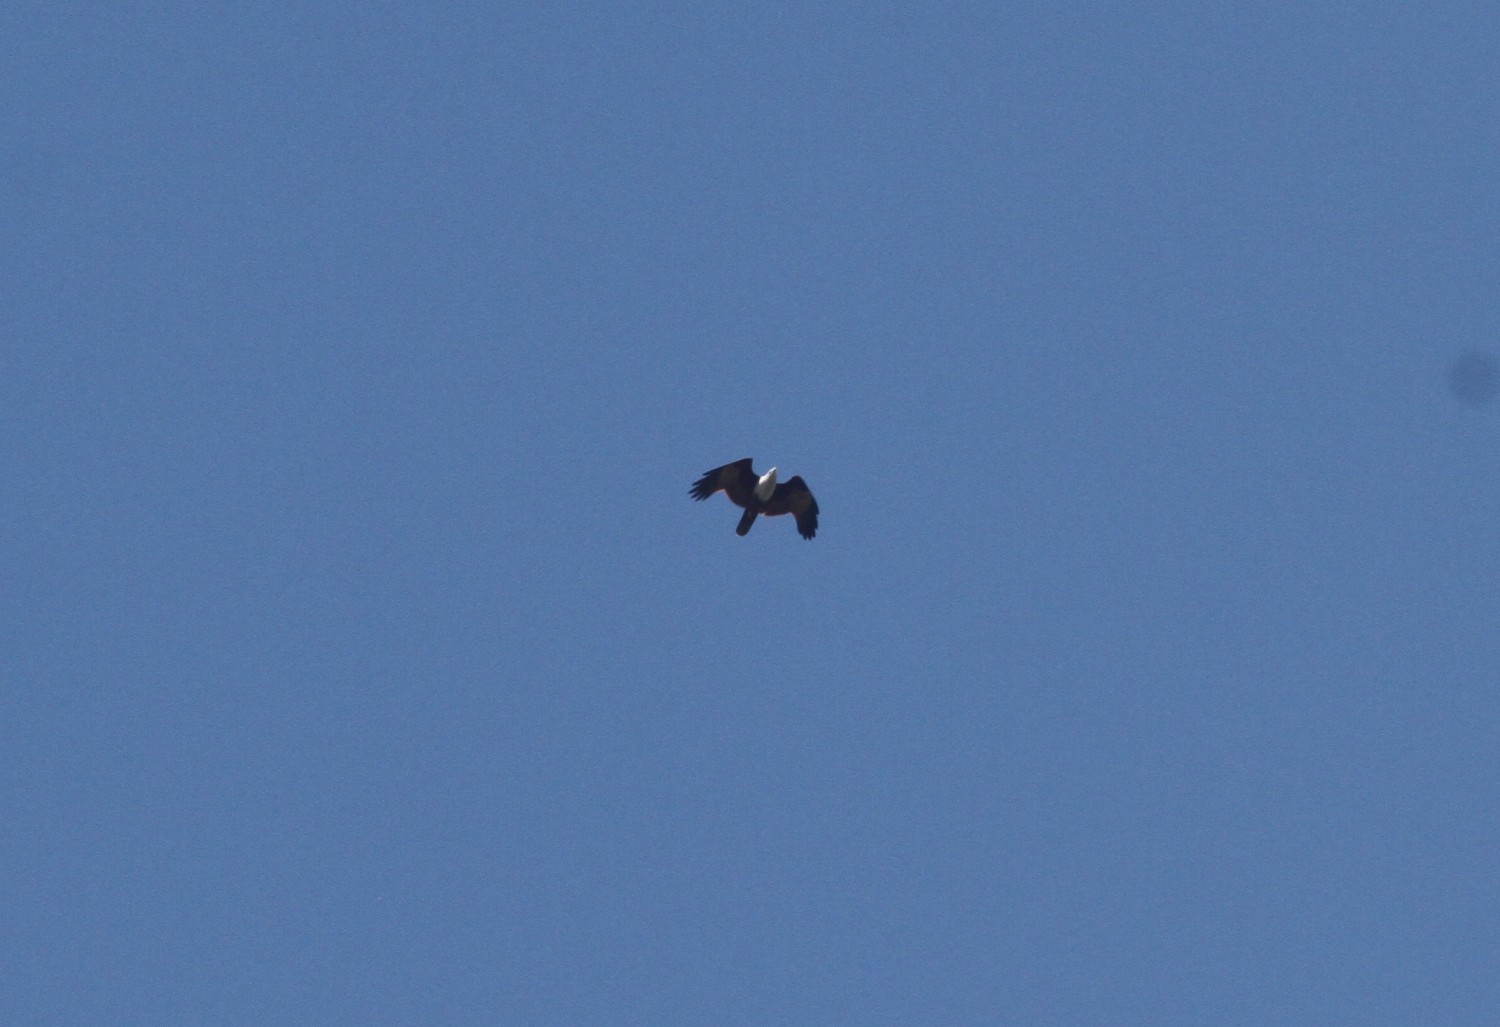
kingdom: Animalia
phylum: Chordata
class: Aves
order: Accipitriformes
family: Accipitridae
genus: Haliastur
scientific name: Haliastur indus
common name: Brahminy kite
